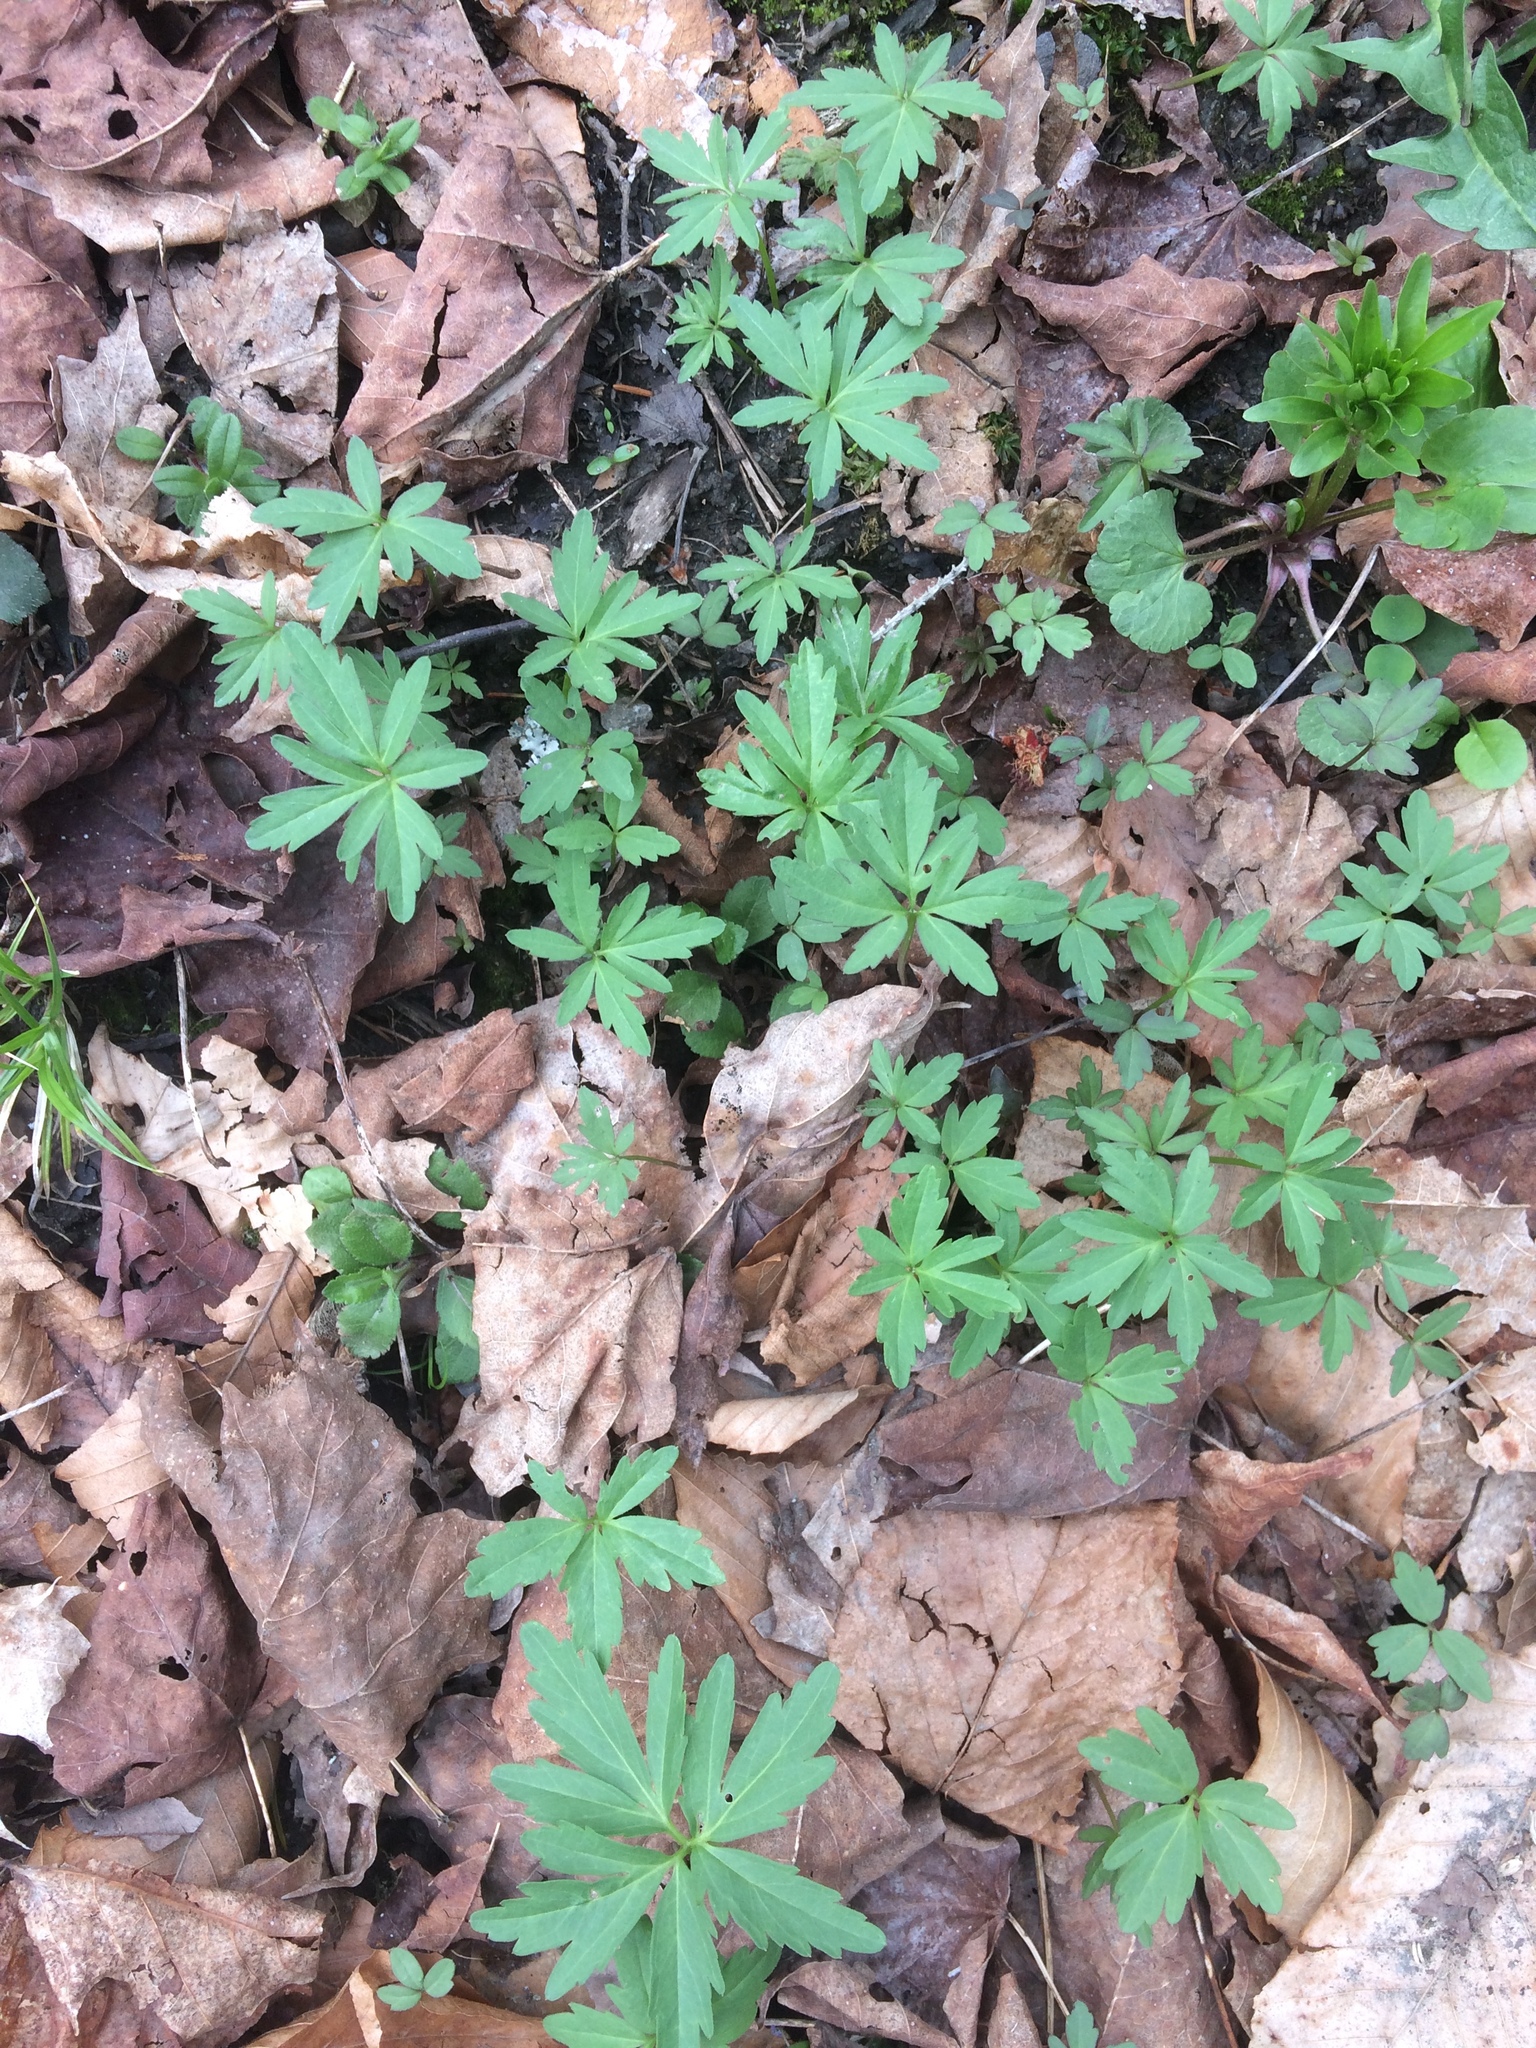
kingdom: Plantae
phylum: Tracheophyta
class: Magnoliopsida
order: Brassicales
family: Brassicaceae
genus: Cardamine
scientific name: Cardamine concatenata
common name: Cut-leaf toothcup
